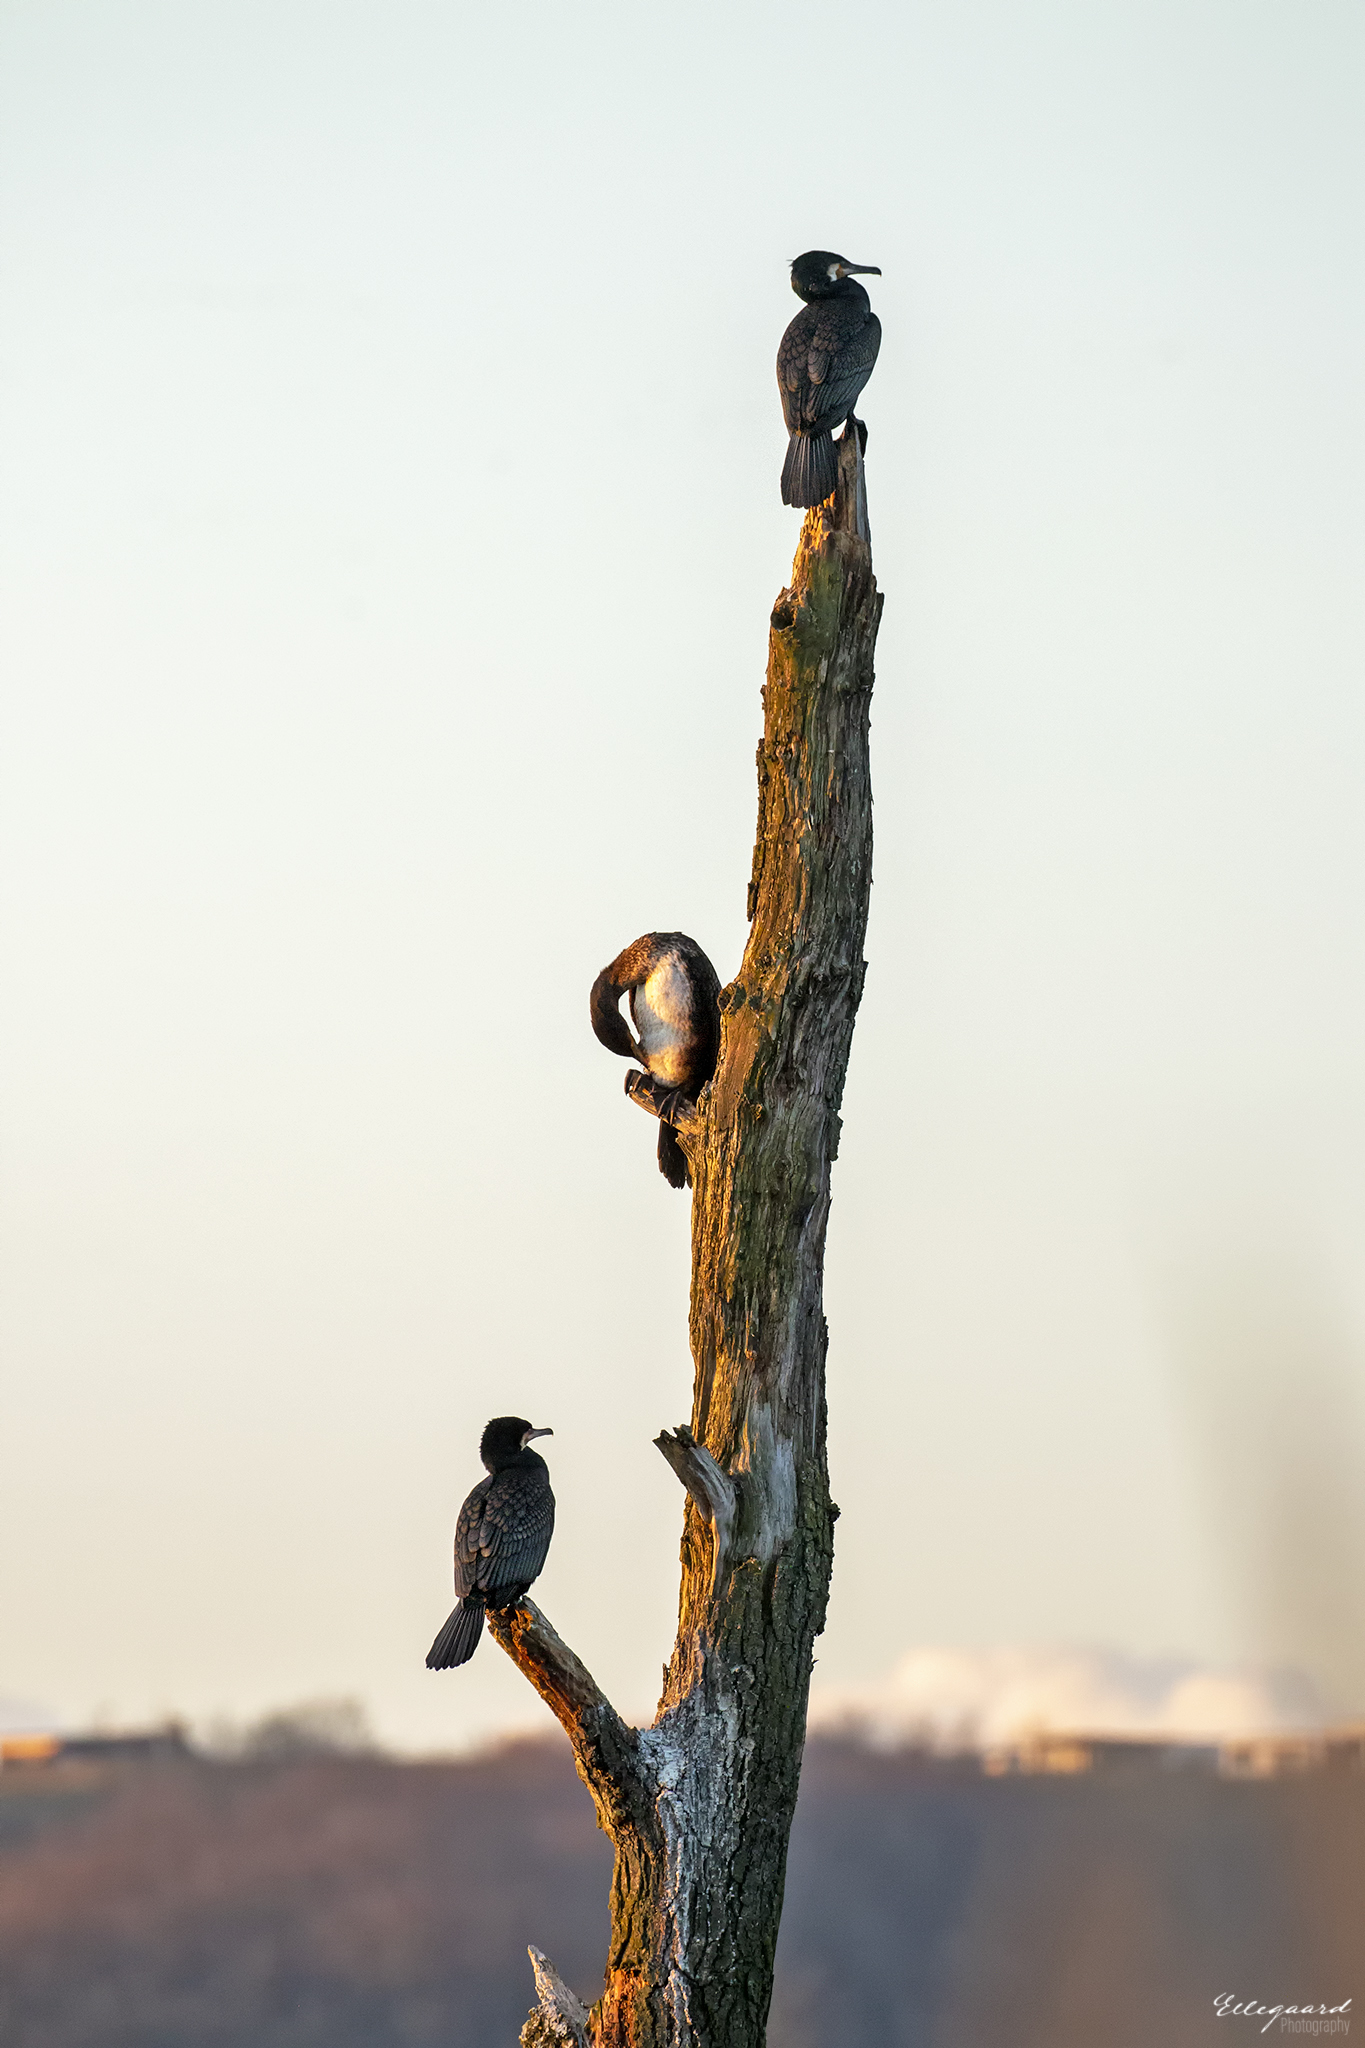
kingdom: Animalia
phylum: Chordata
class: Aves
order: Suliformes
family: Phalacrocoracidae
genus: Phalacrocorax
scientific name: Phalacrocorax carbo
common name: Great cormorant
